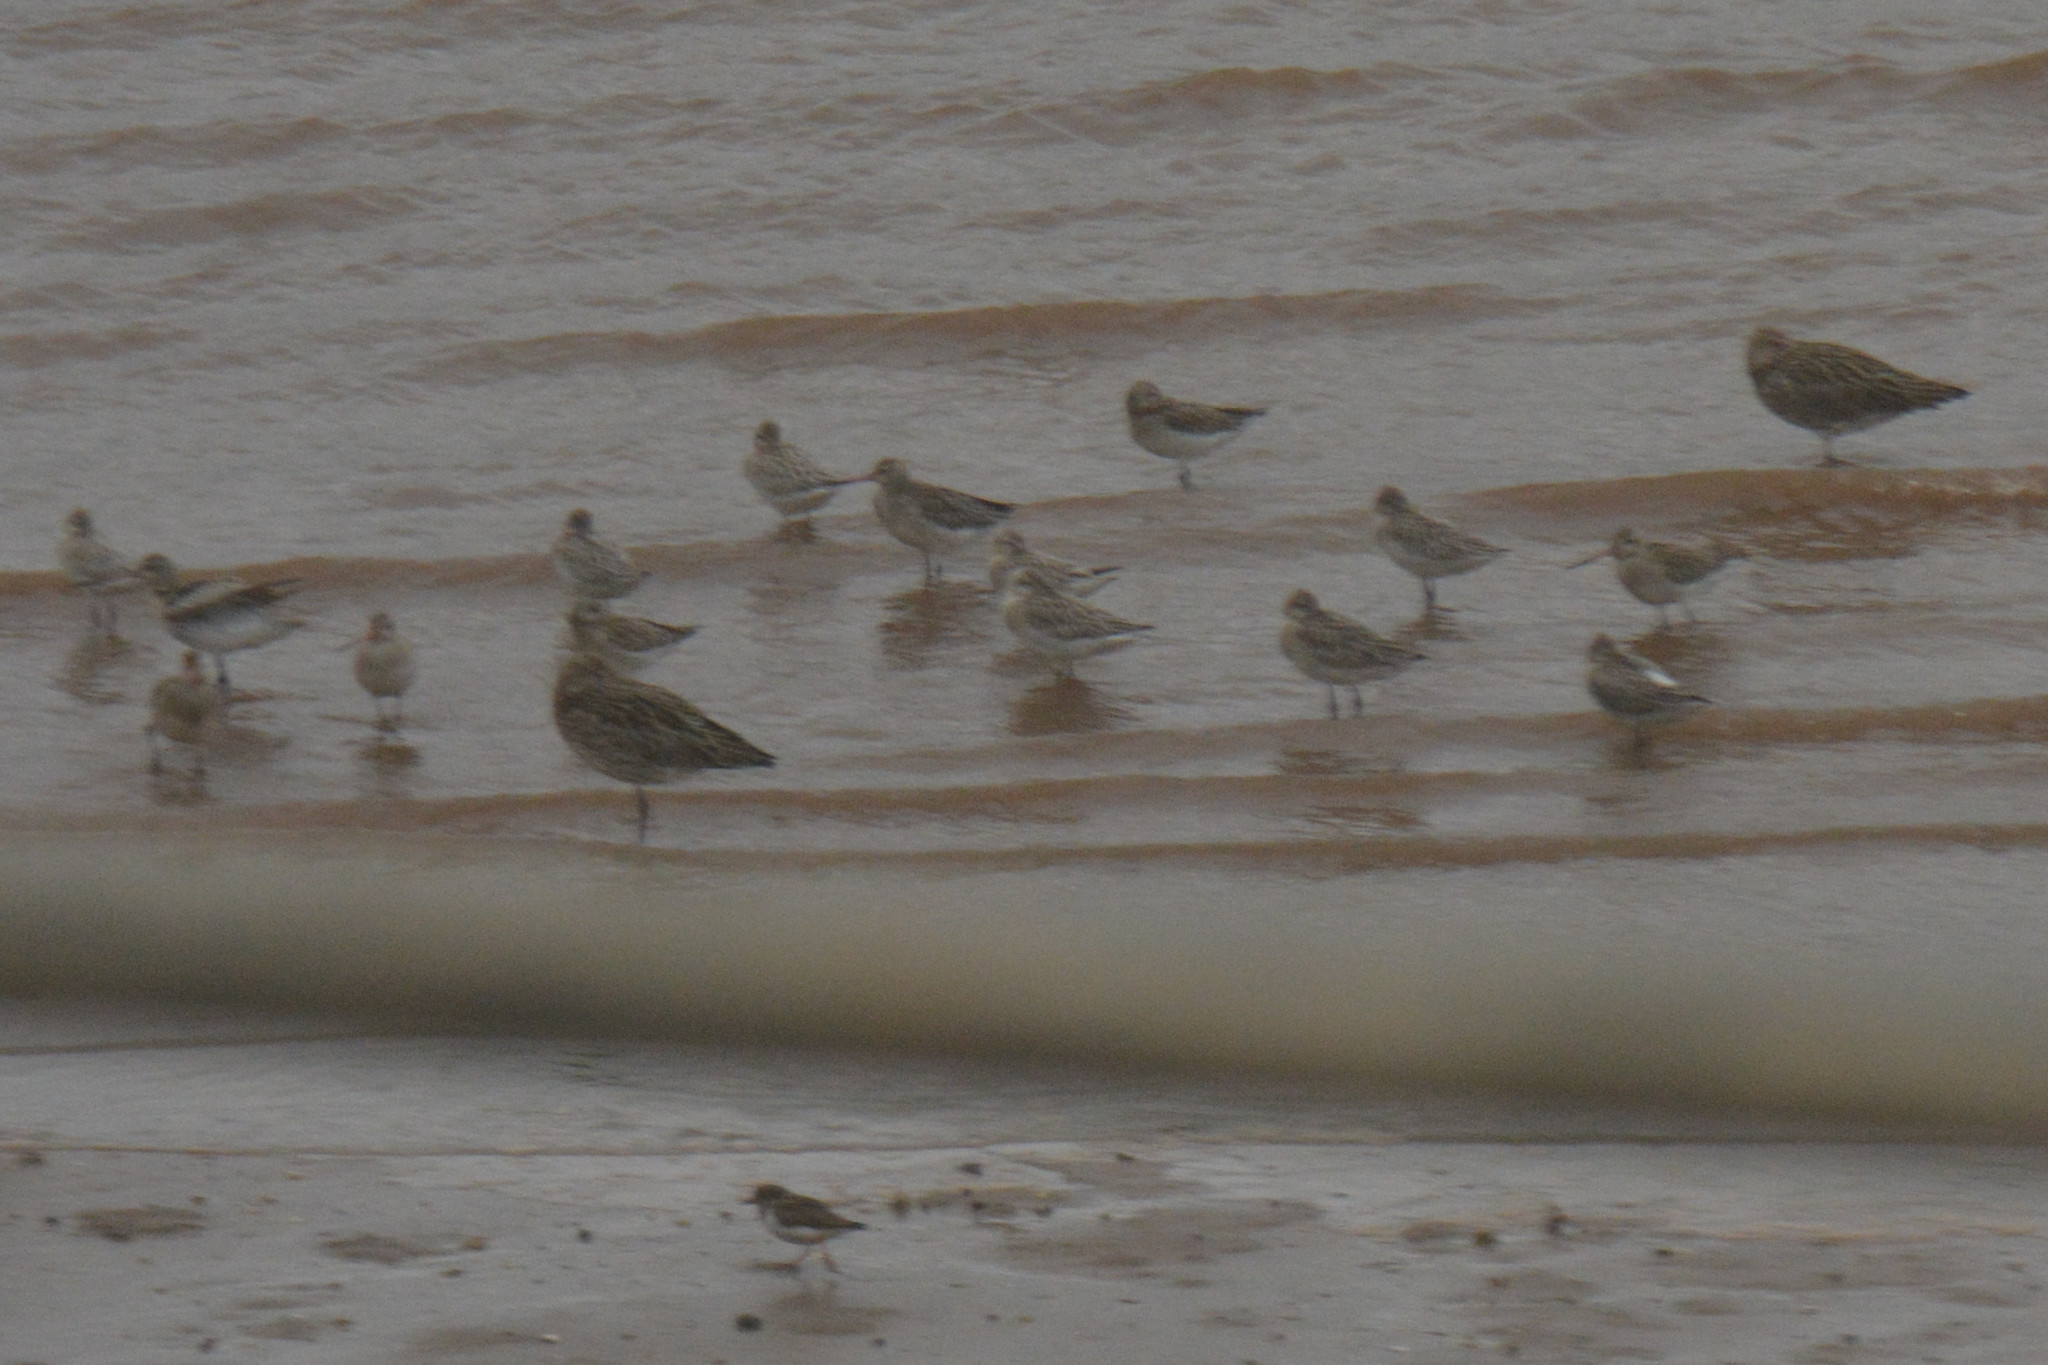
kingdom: Animalia
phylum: Chordata
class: Aves
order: Charadriiformes
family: Scolopacidae
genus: Numenius
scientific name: Numenius arquata
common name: Eurasian curlew
